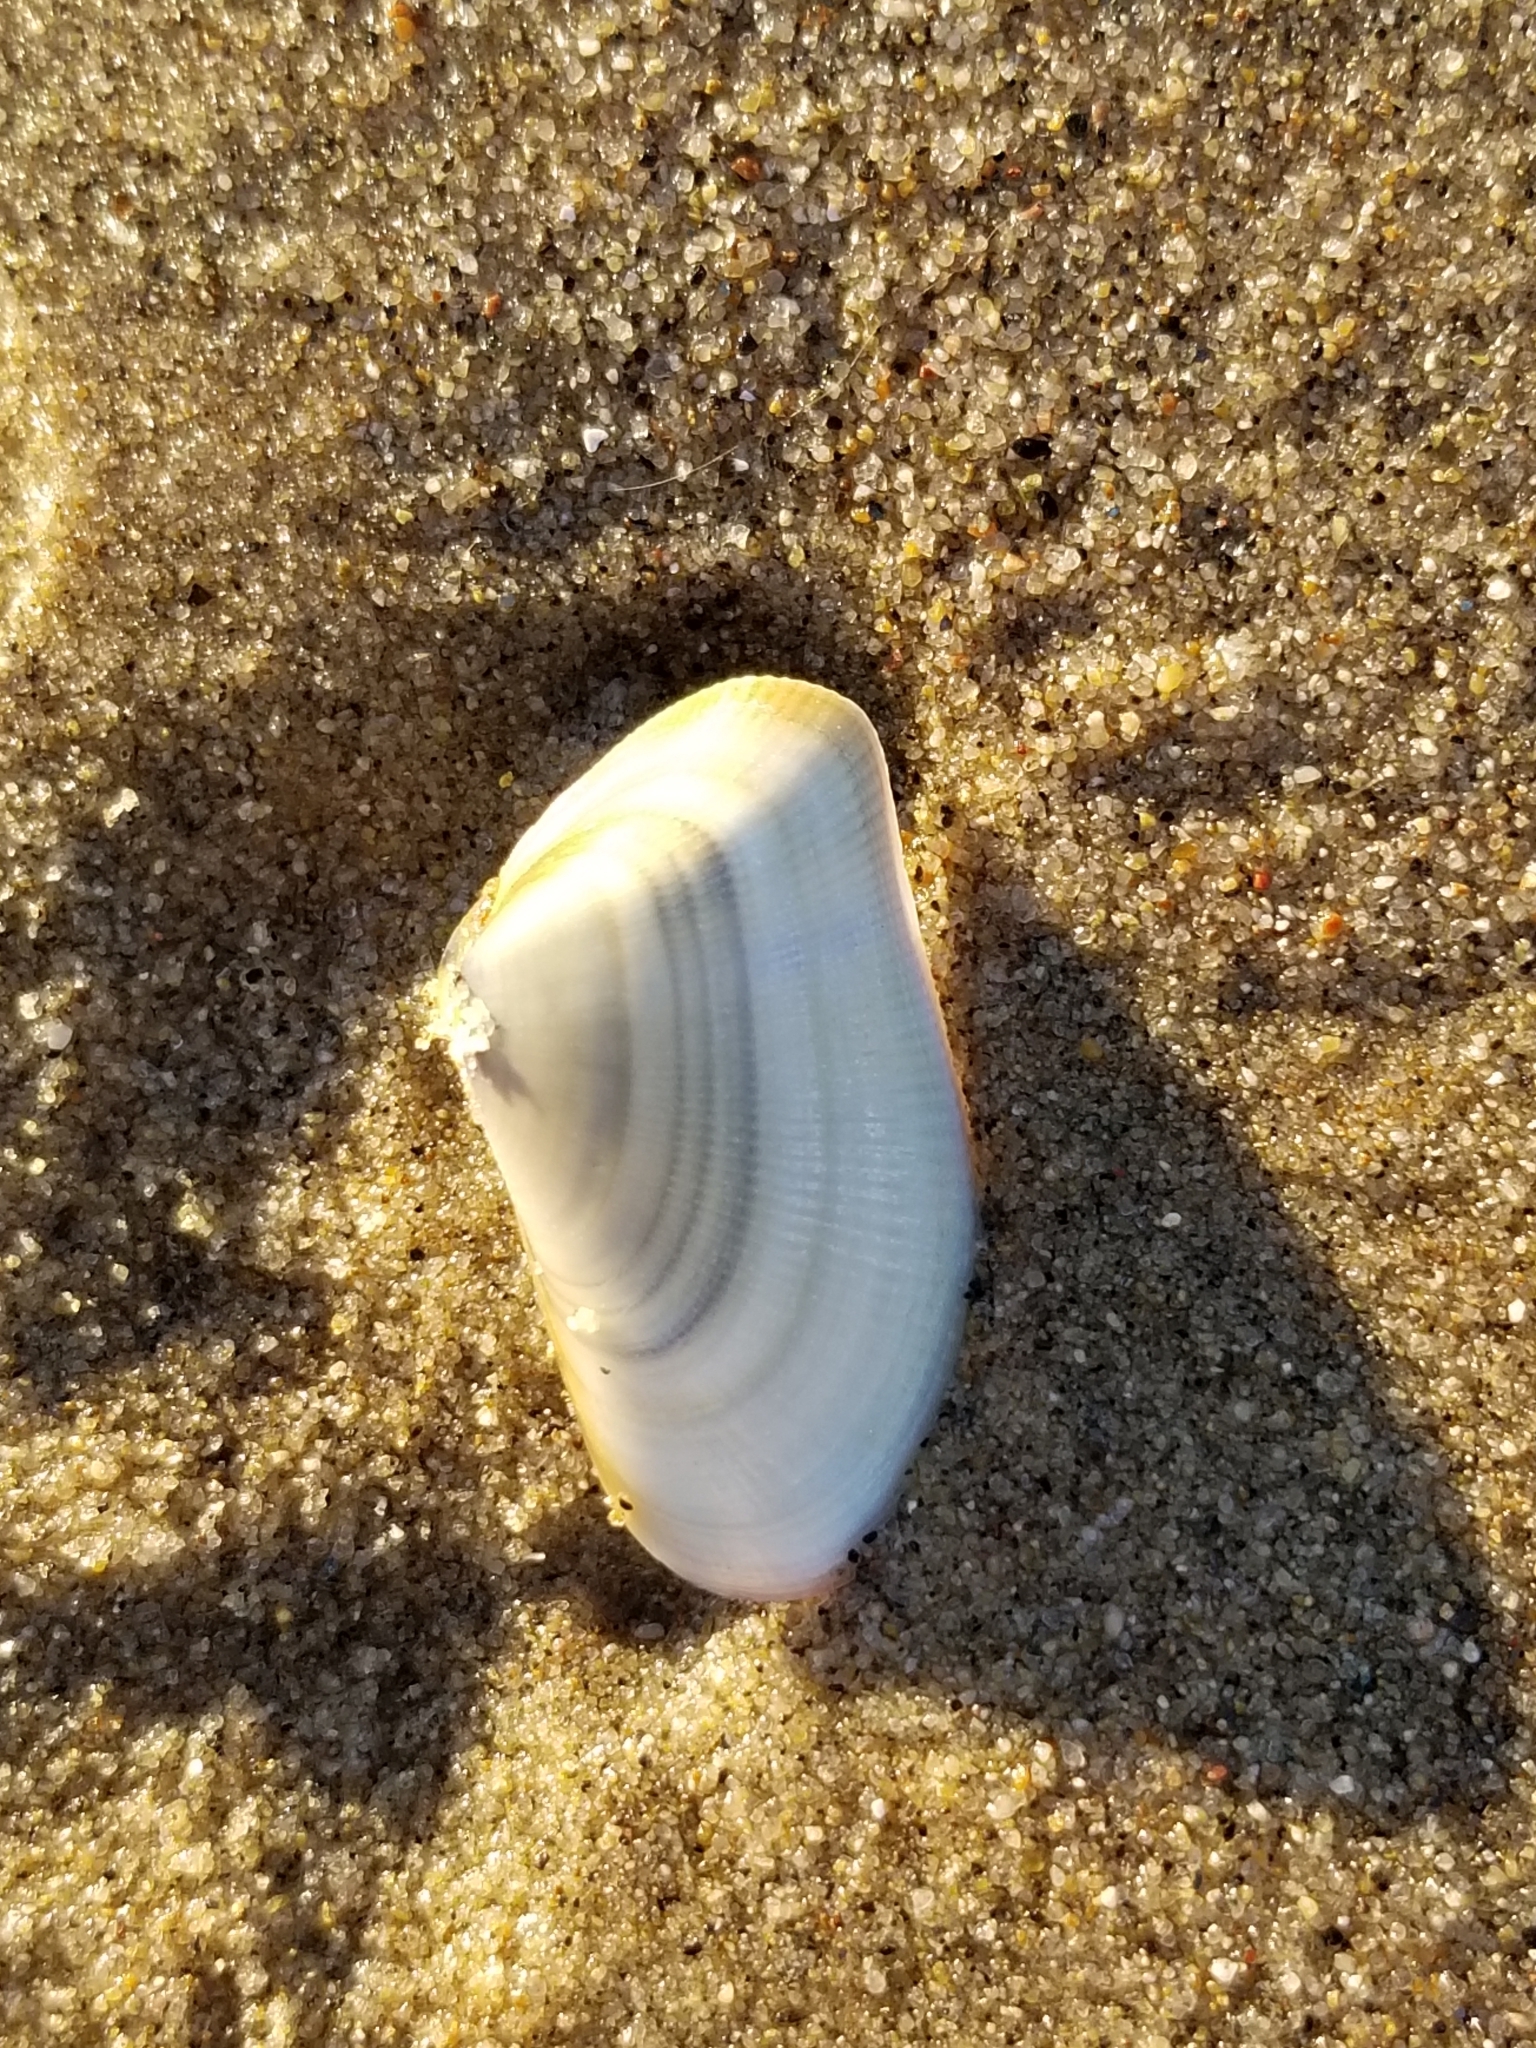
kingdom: Animalia
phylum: Mollusca
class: Bivalvia
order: Cardiida
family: Donacidae
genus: Donax
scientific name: Donax gouldii
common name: Gould beanclam
